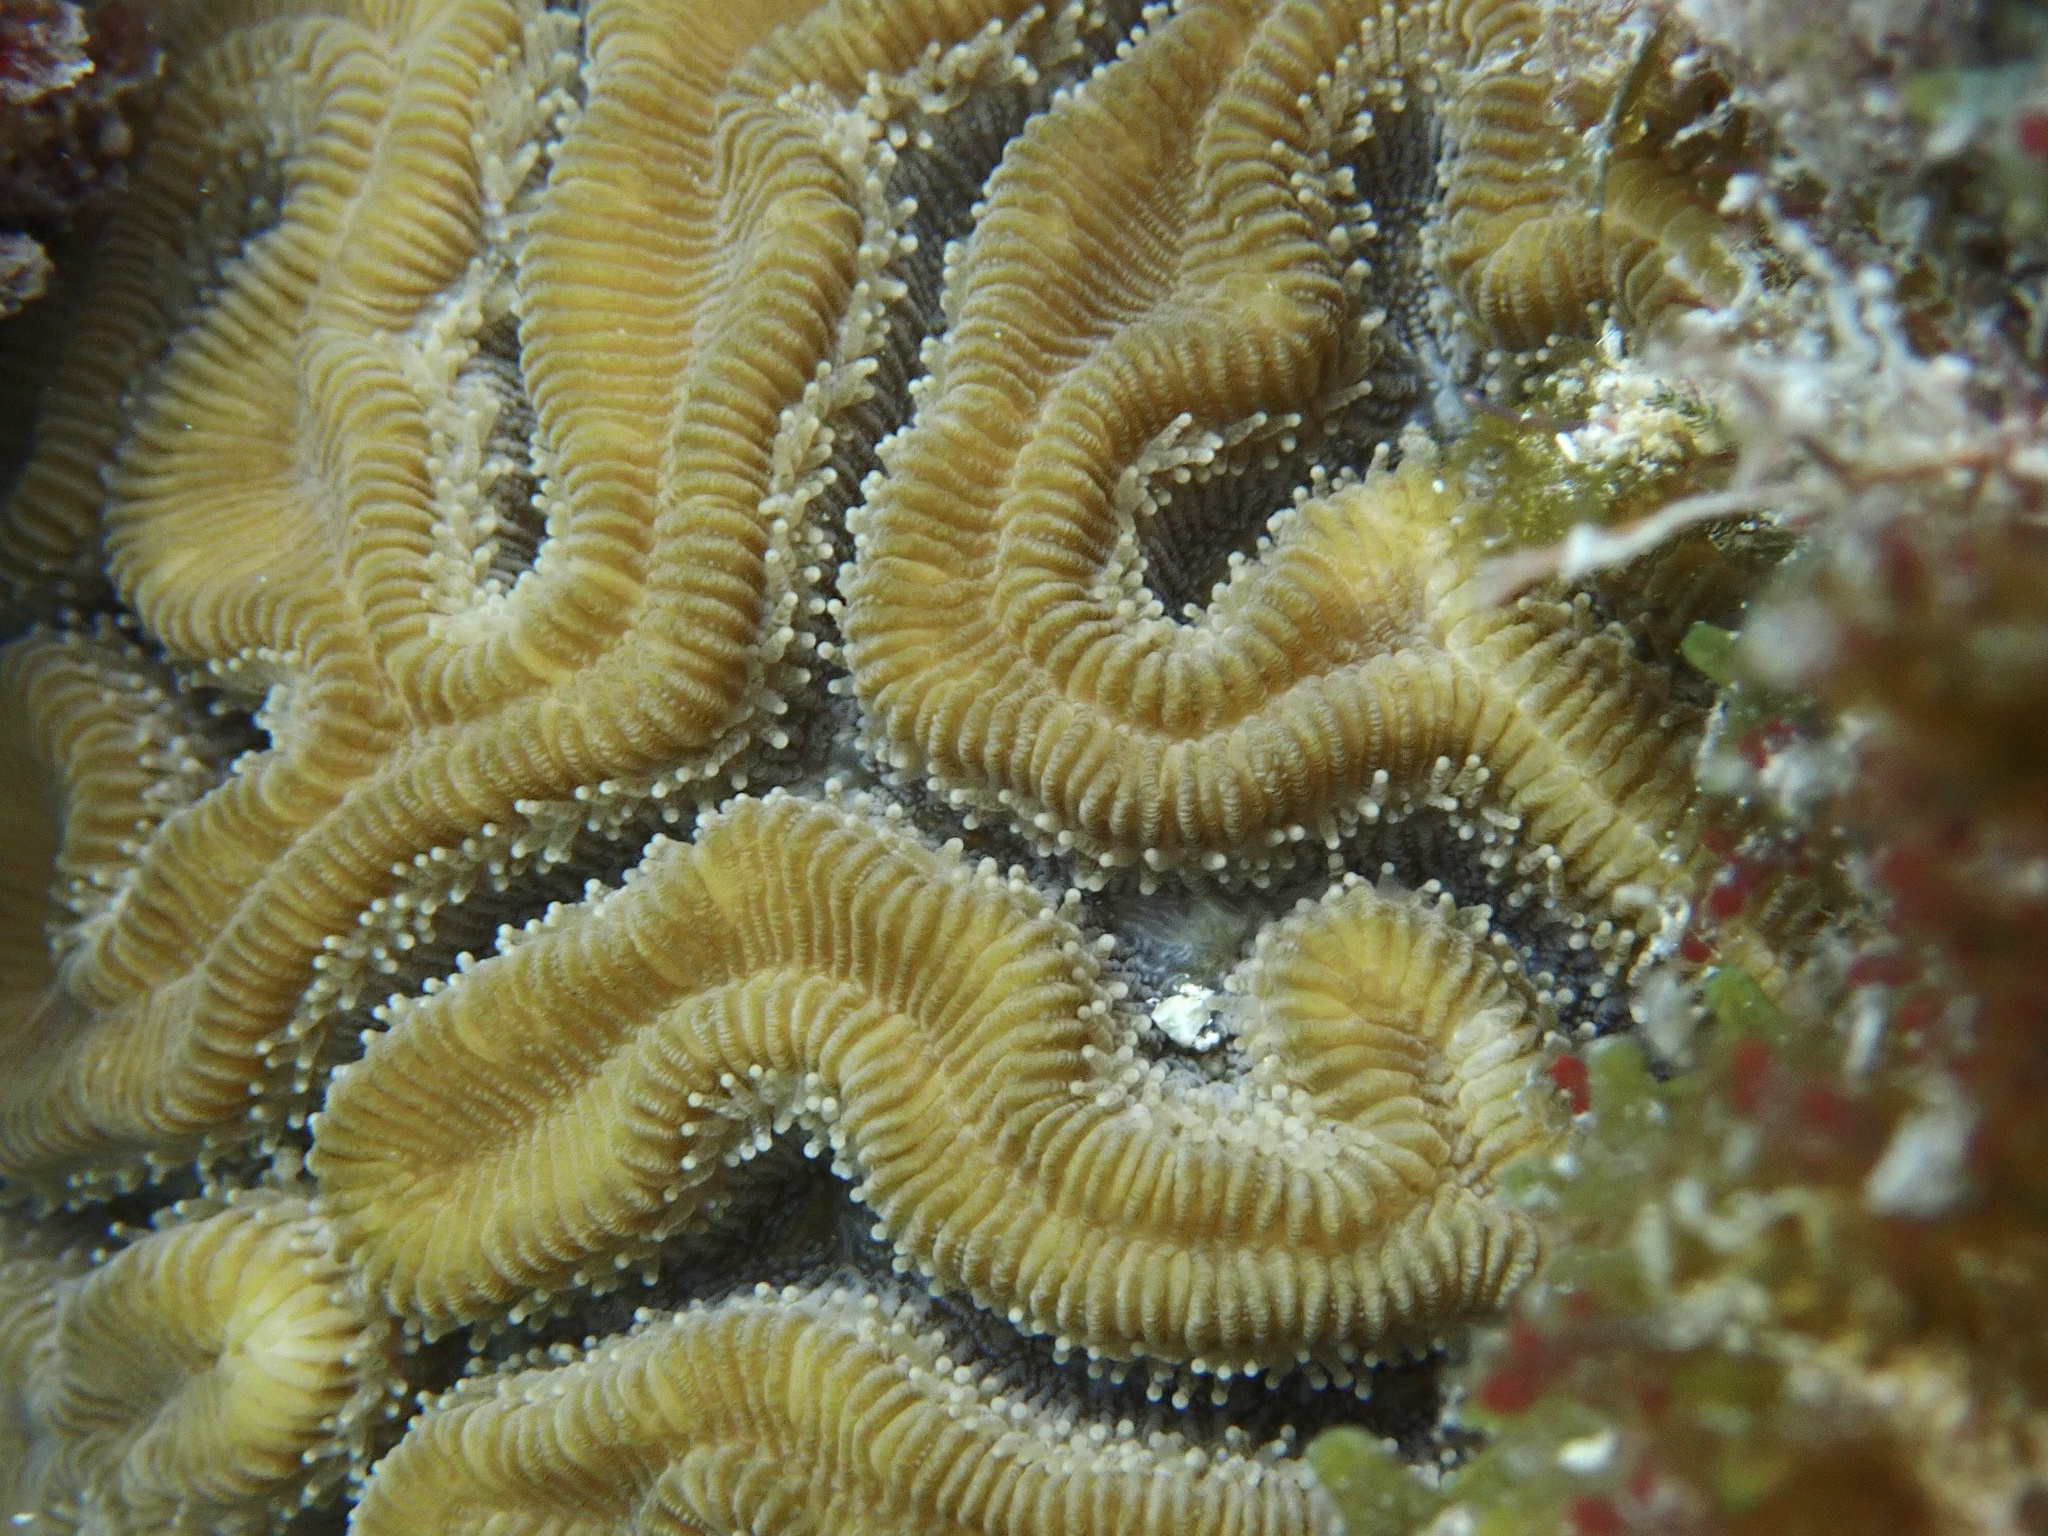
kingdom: Animalia
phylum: Cnidaria
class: Anthozoa
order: Scleractinia
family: Faviidae
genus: Diploria
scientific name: Diploria labyrinthiformis
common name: Grooved brain coral
